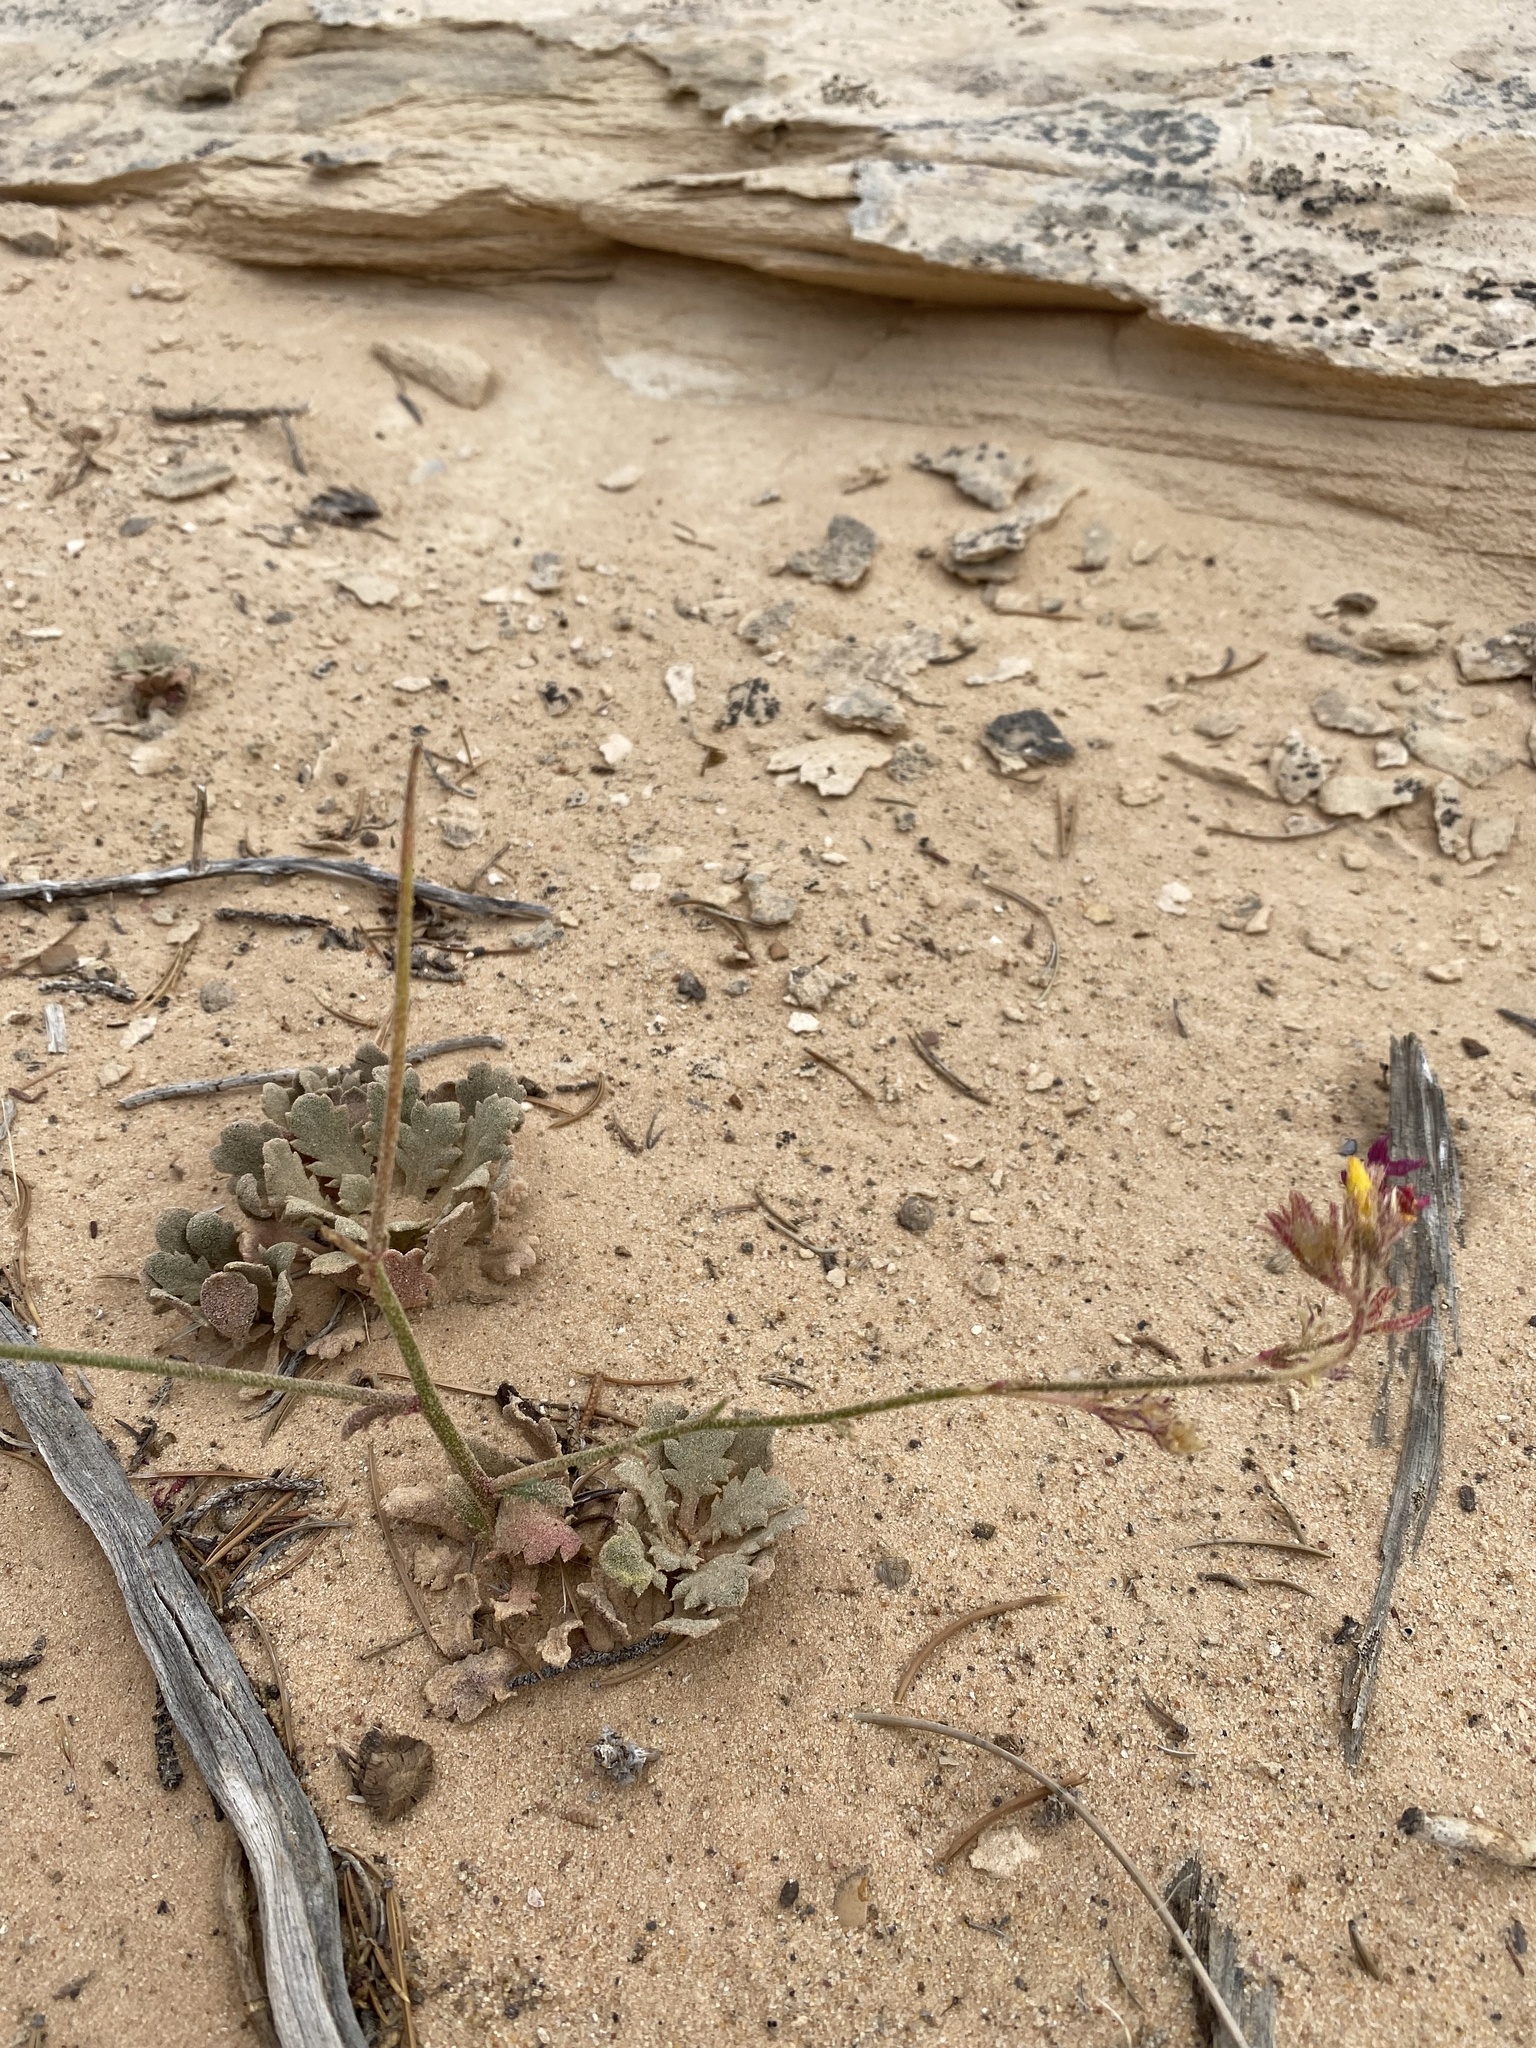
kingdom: Plantae
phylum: Tracheophyta
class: Magnoliopsida
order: Ericales
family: Polemoniaceae
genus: Aliciella
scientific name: Aliciella subnuda
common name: Coral gilia
